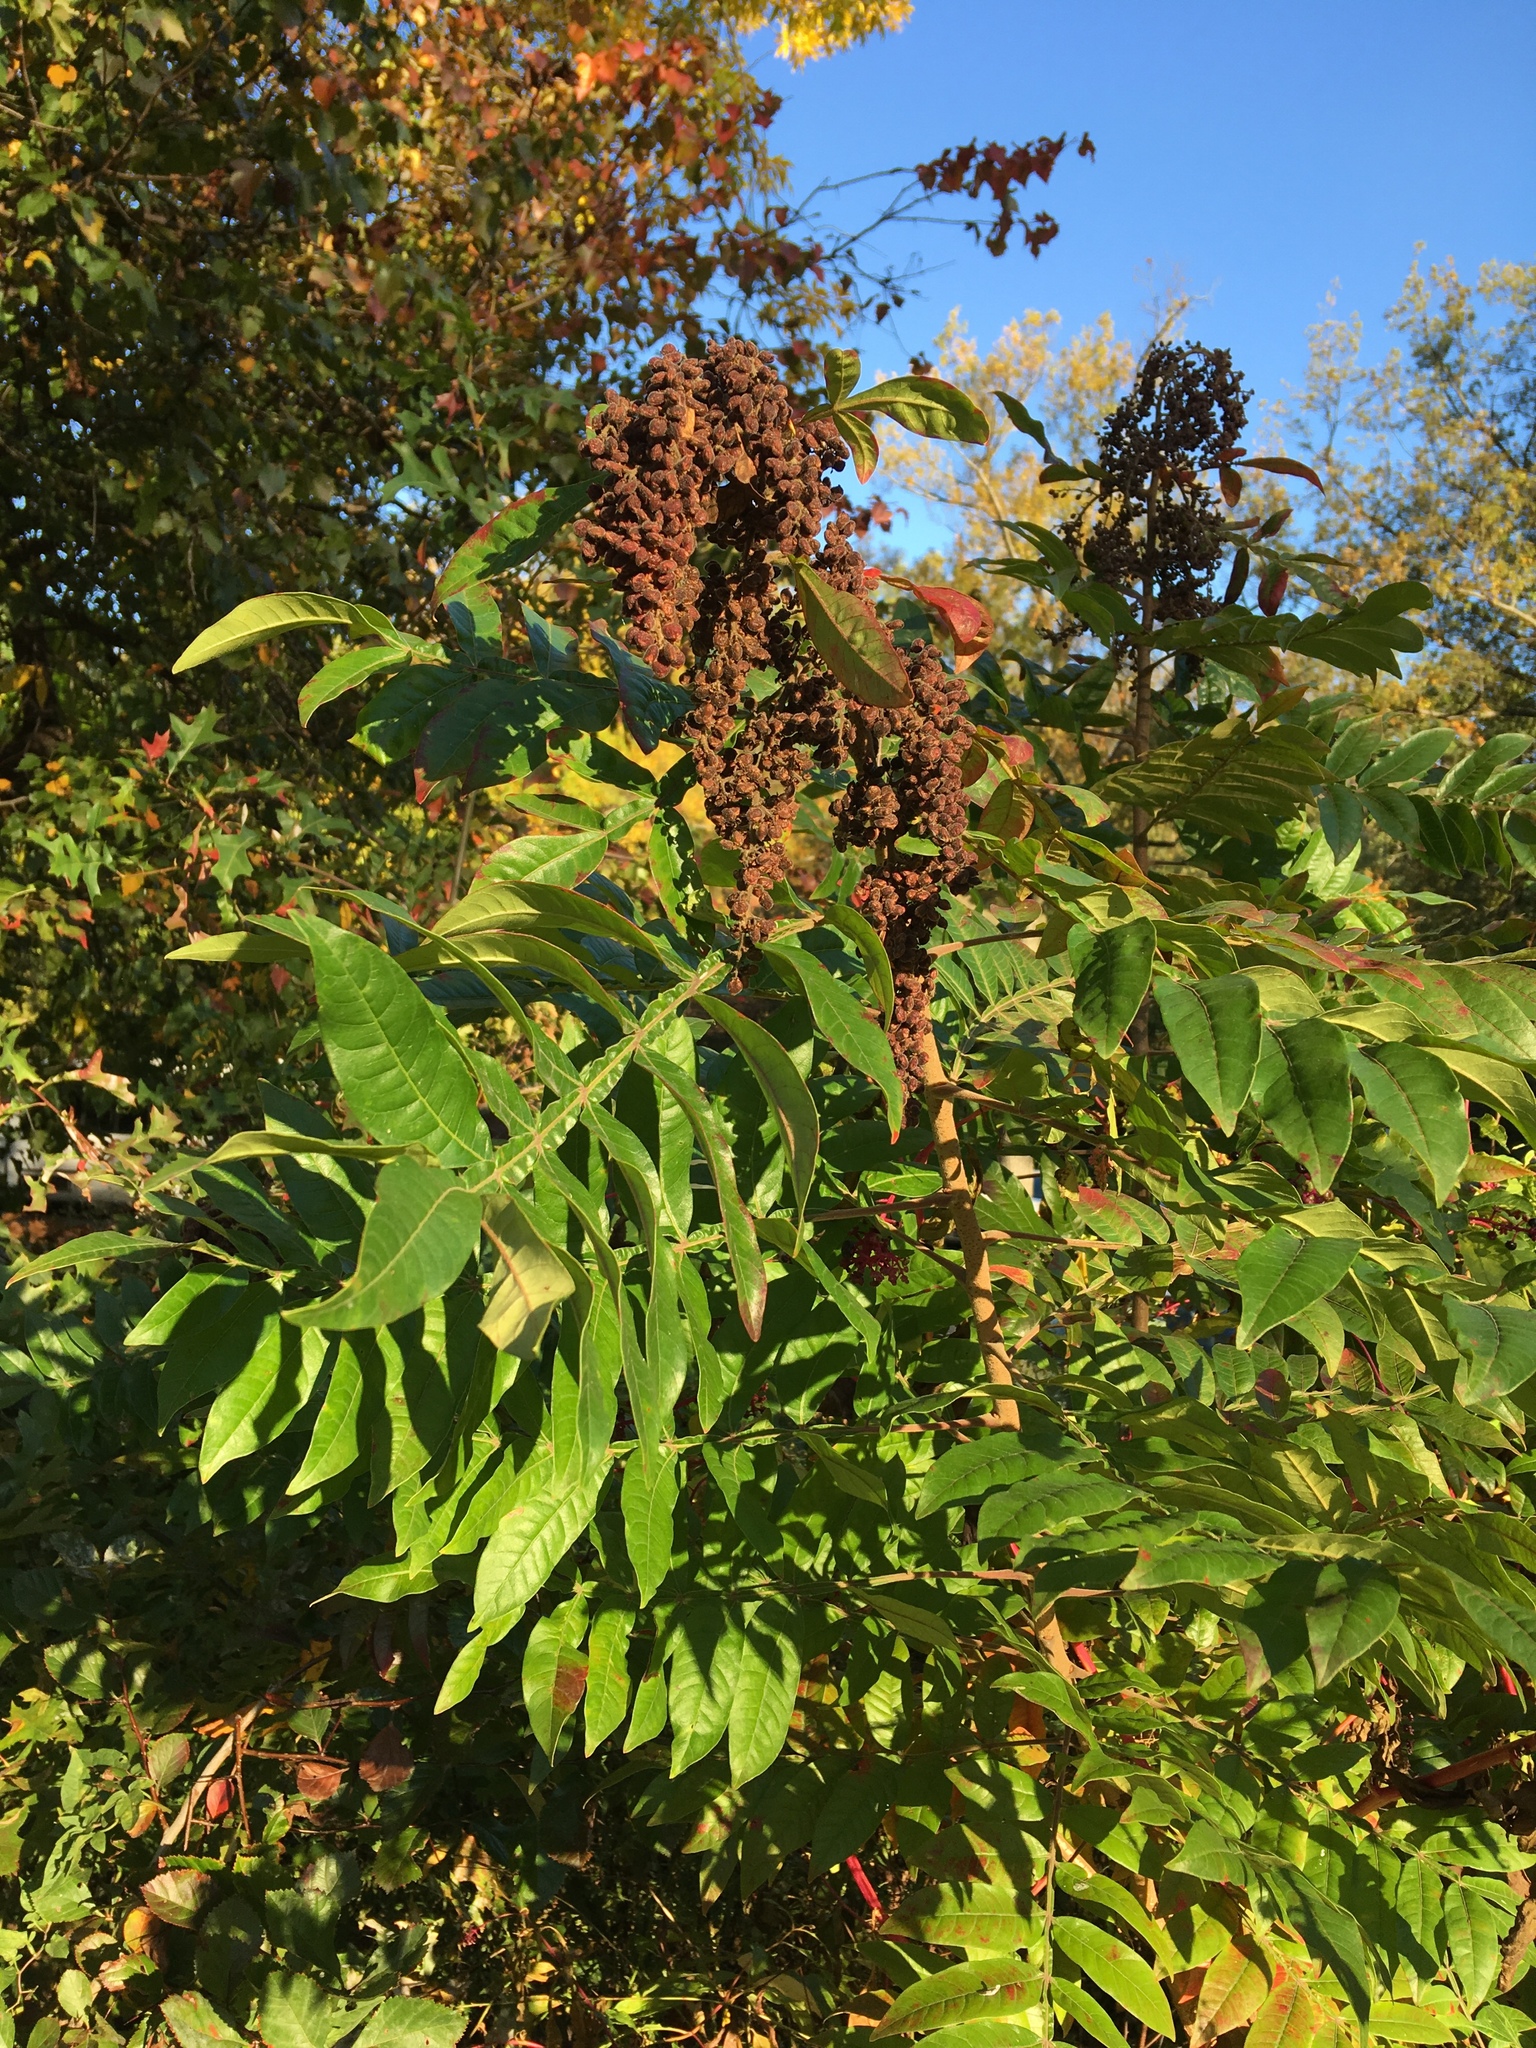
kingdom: Plantae
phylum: Tracheophyta
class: Magnoliopsida
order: Sapindales
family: Anacardiaceae
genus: Rhus
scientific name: Rhus copallina
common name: Shining sumac
